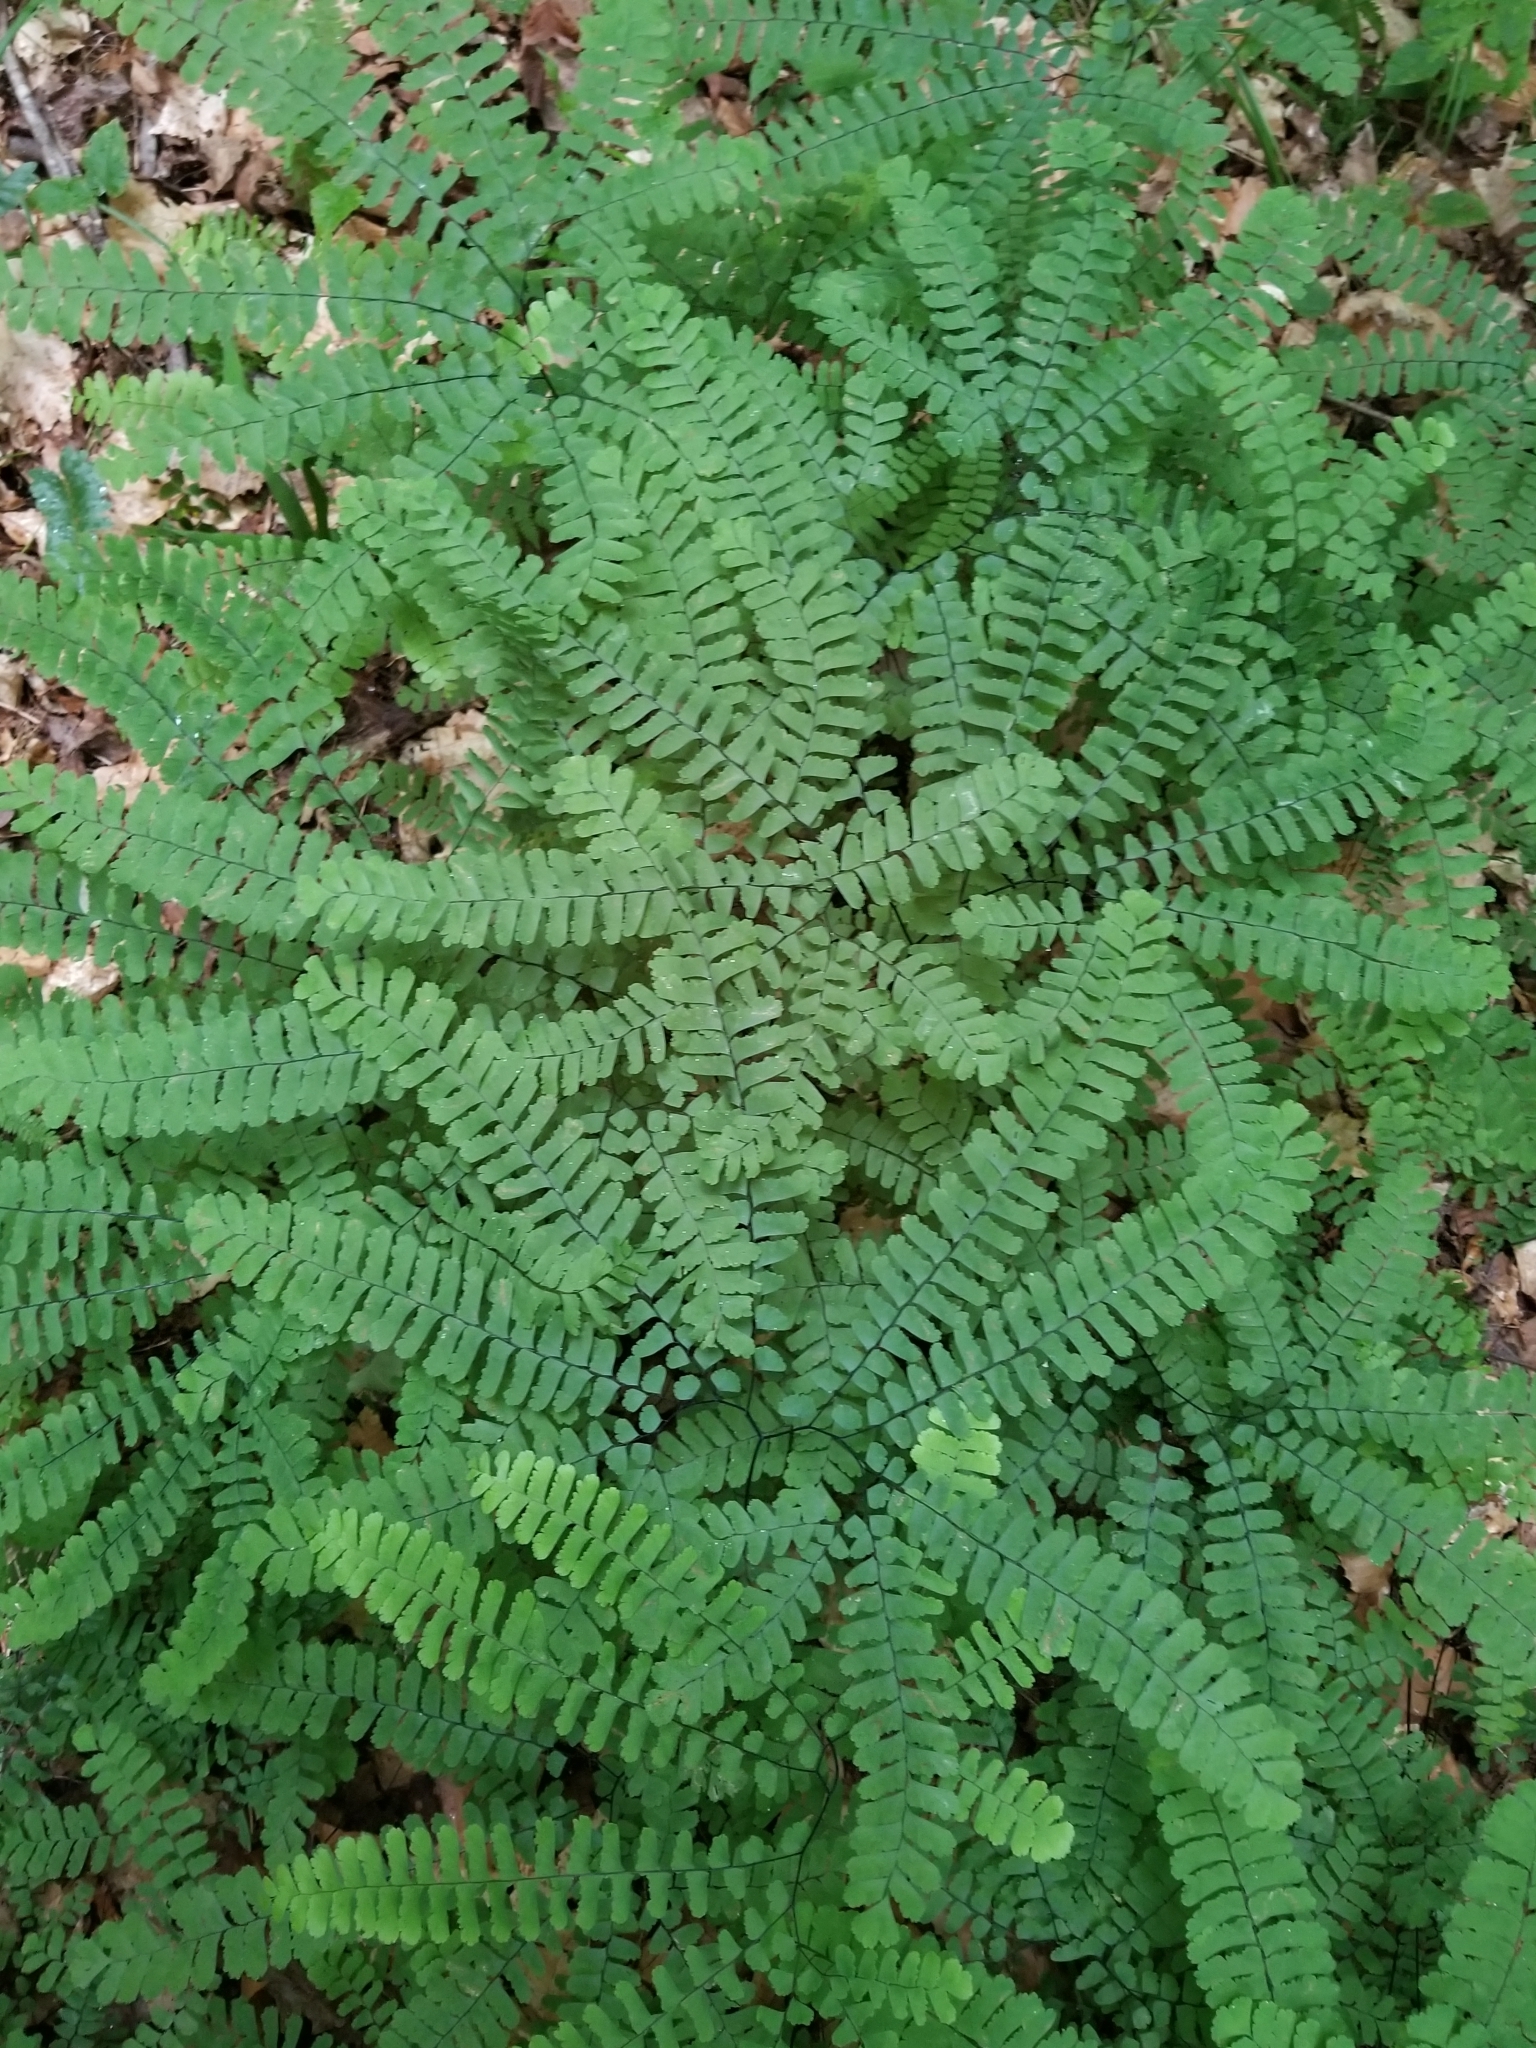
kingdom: Plantae
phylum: Tracheophyta
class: Polypodiopsida
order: Polypodiales
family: Pteridaceae
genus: Adiantum
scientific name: Adiantum pedatum
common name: Five-finger fern
